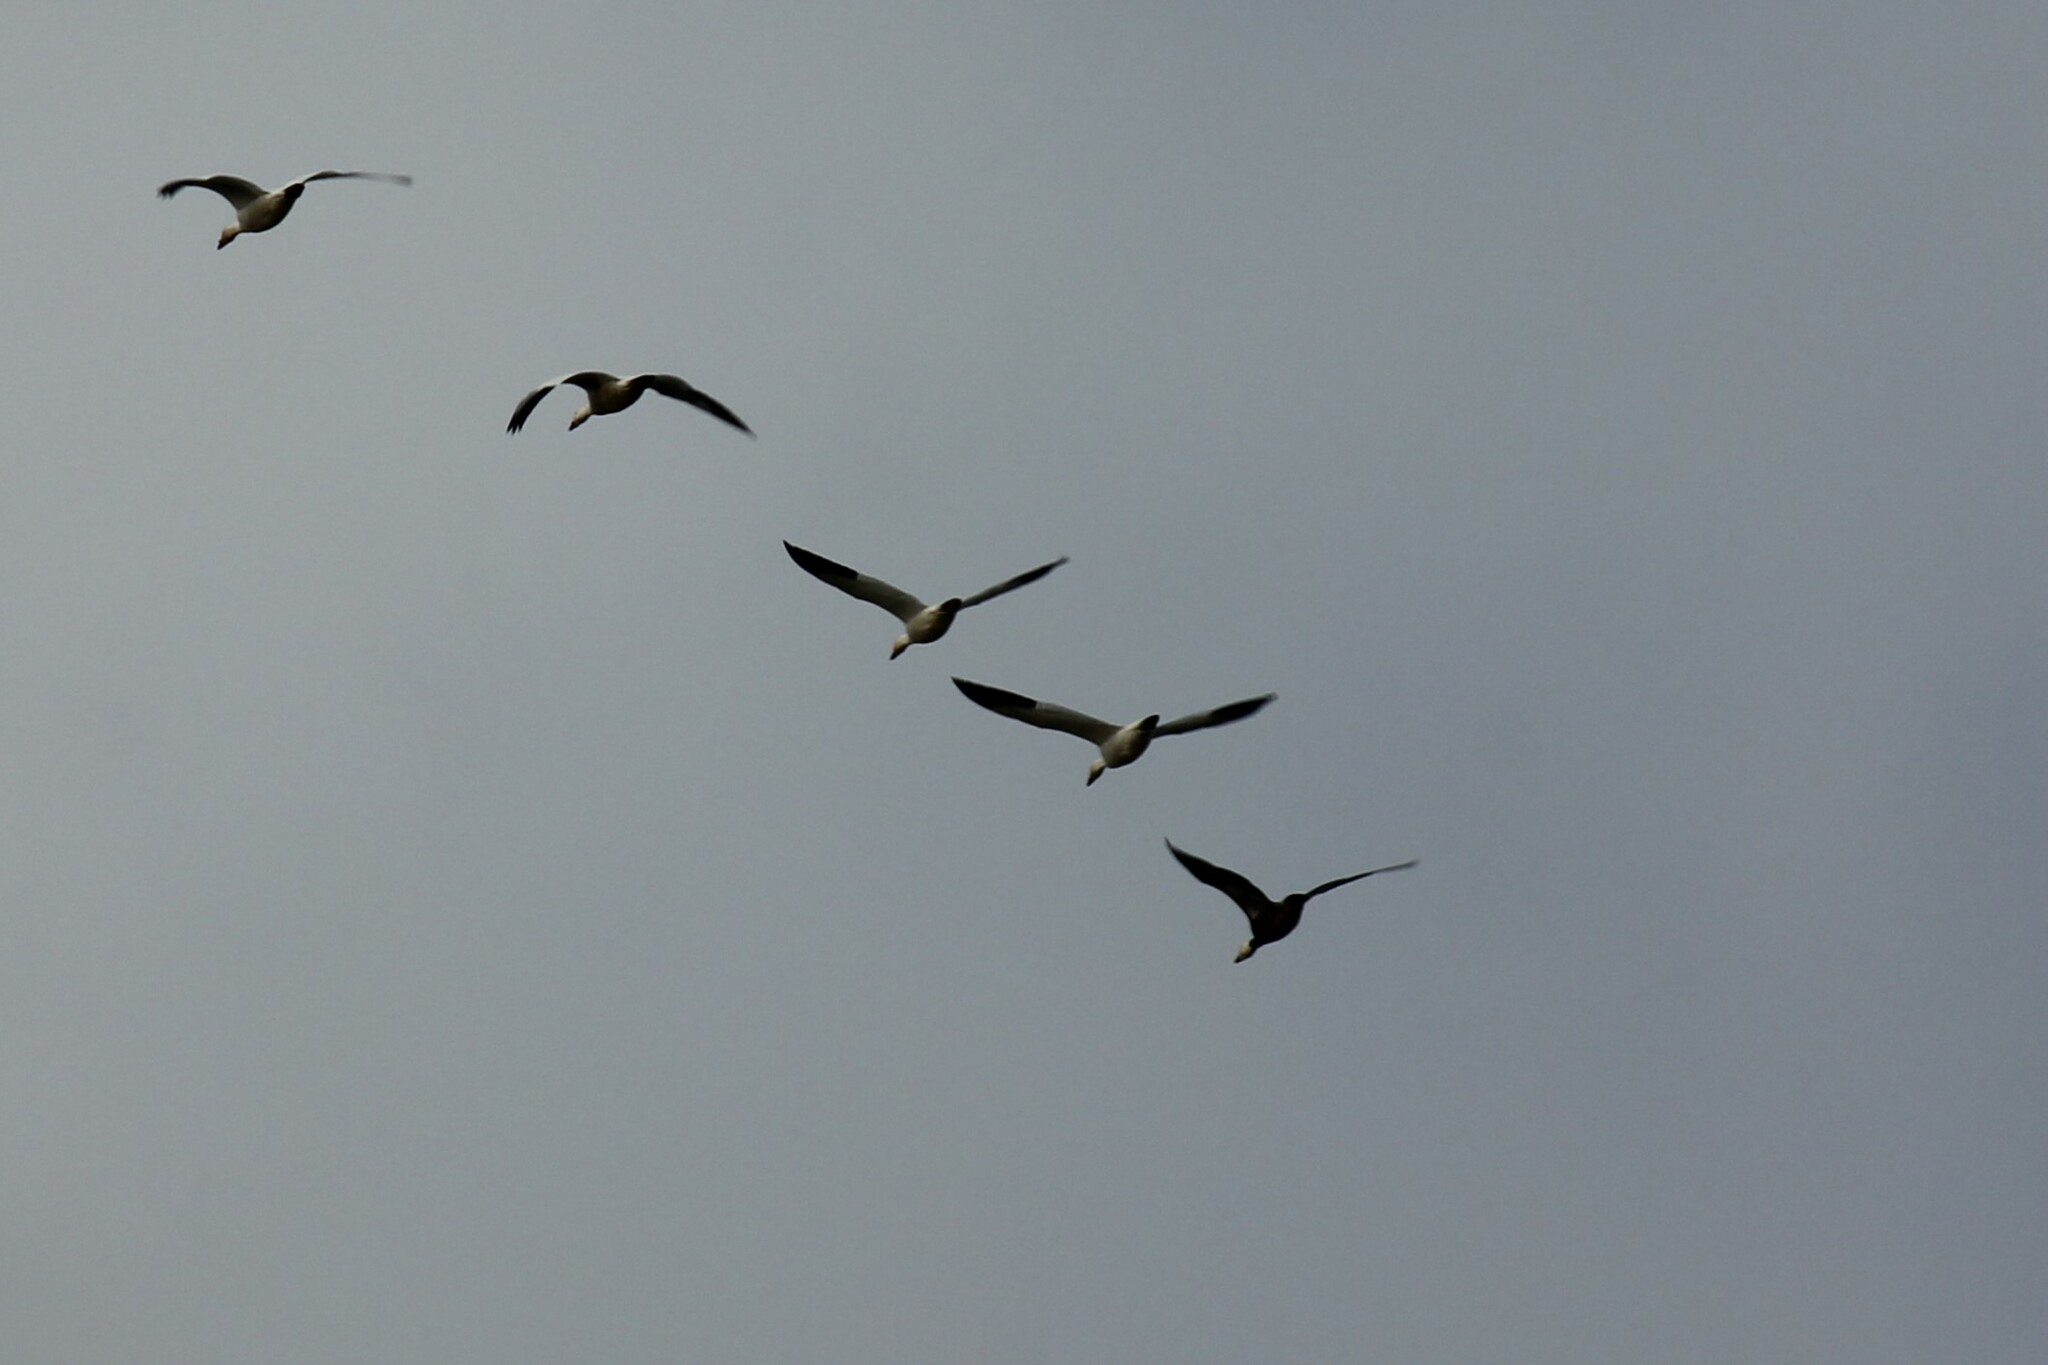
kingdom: Animalia
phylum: Chordata
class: Aves
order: Anseriformes
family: Anatidae
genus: Anser
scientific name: Anser caerulescens
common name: Snow goose
